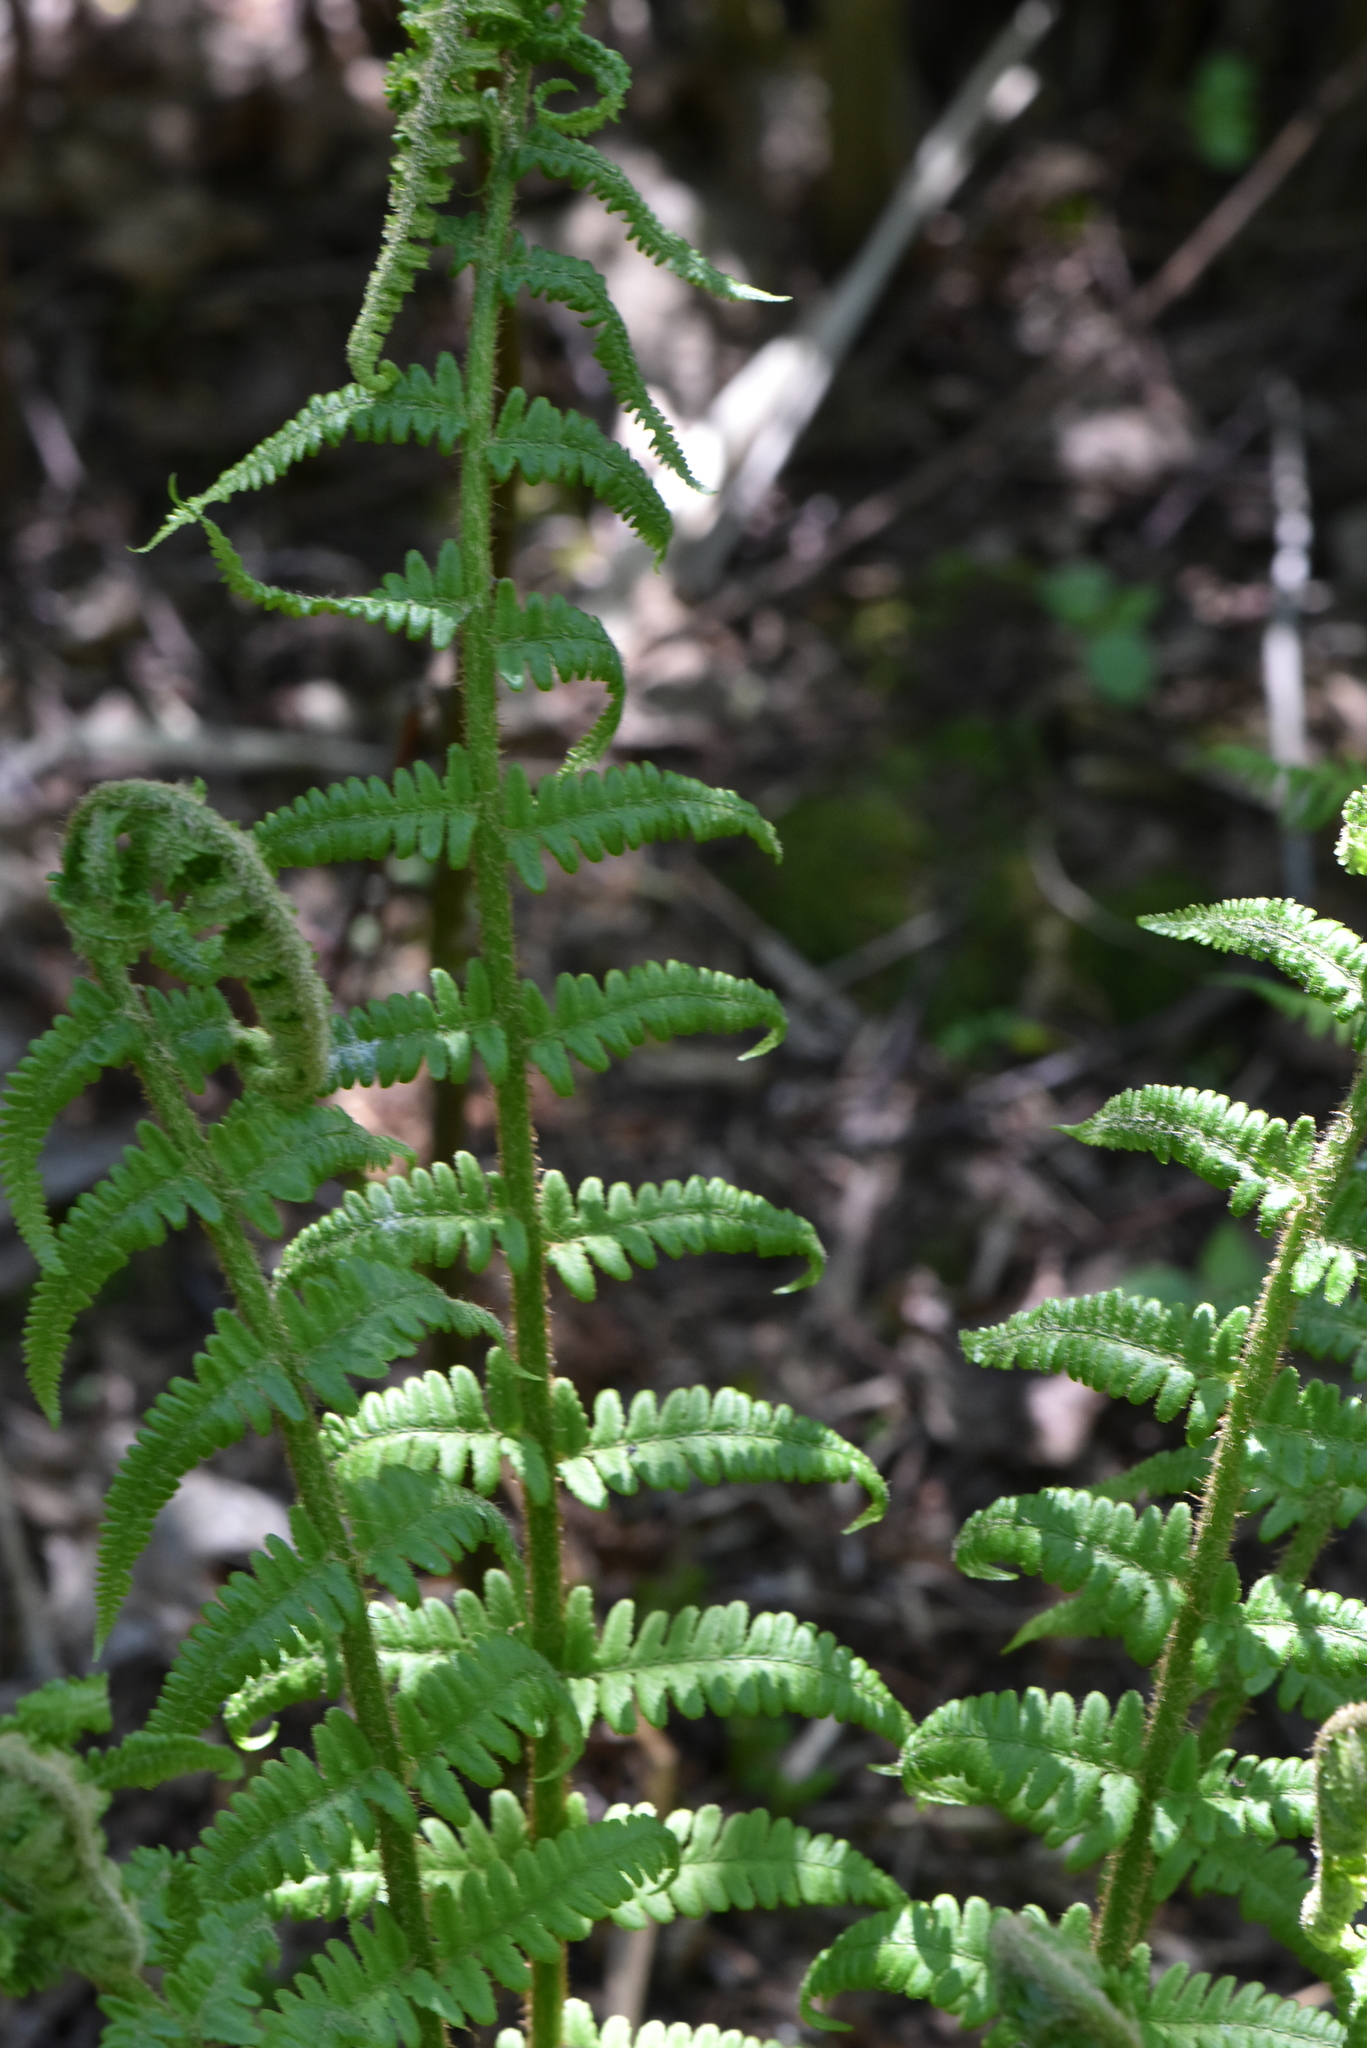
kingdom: Plantae
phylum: Tracheophyta
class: Polypodiopsida
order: Polypodiales
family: Dryopteridaceae
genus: Dryopteris
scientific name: Dryopteris filix-mas
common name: Male fern
